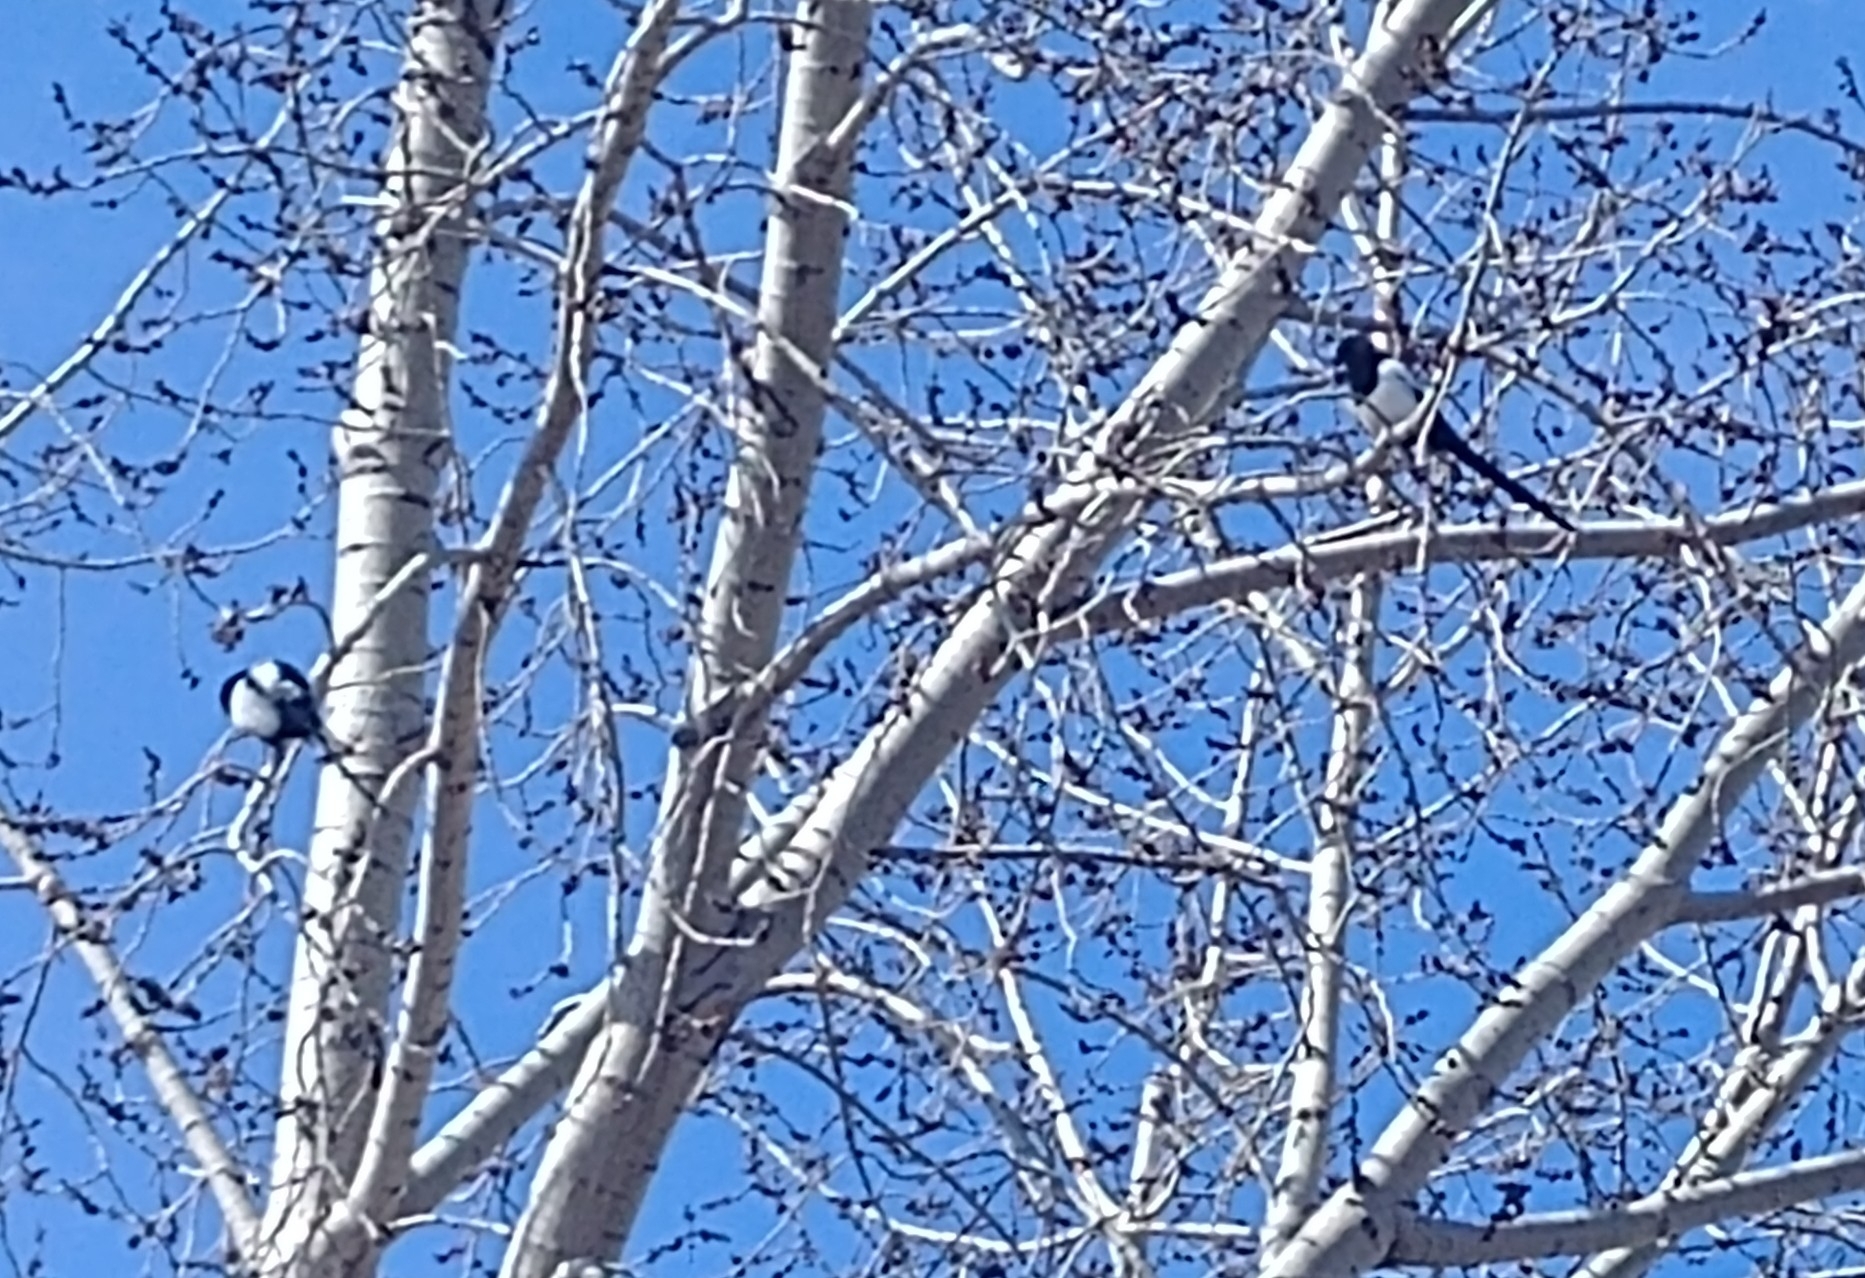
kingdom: Animalia
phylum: Chordata
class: Aves
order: Passeriformes
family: Corvidae
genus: Pica
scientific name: Pica hudsonia
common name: Black-billed magpie
